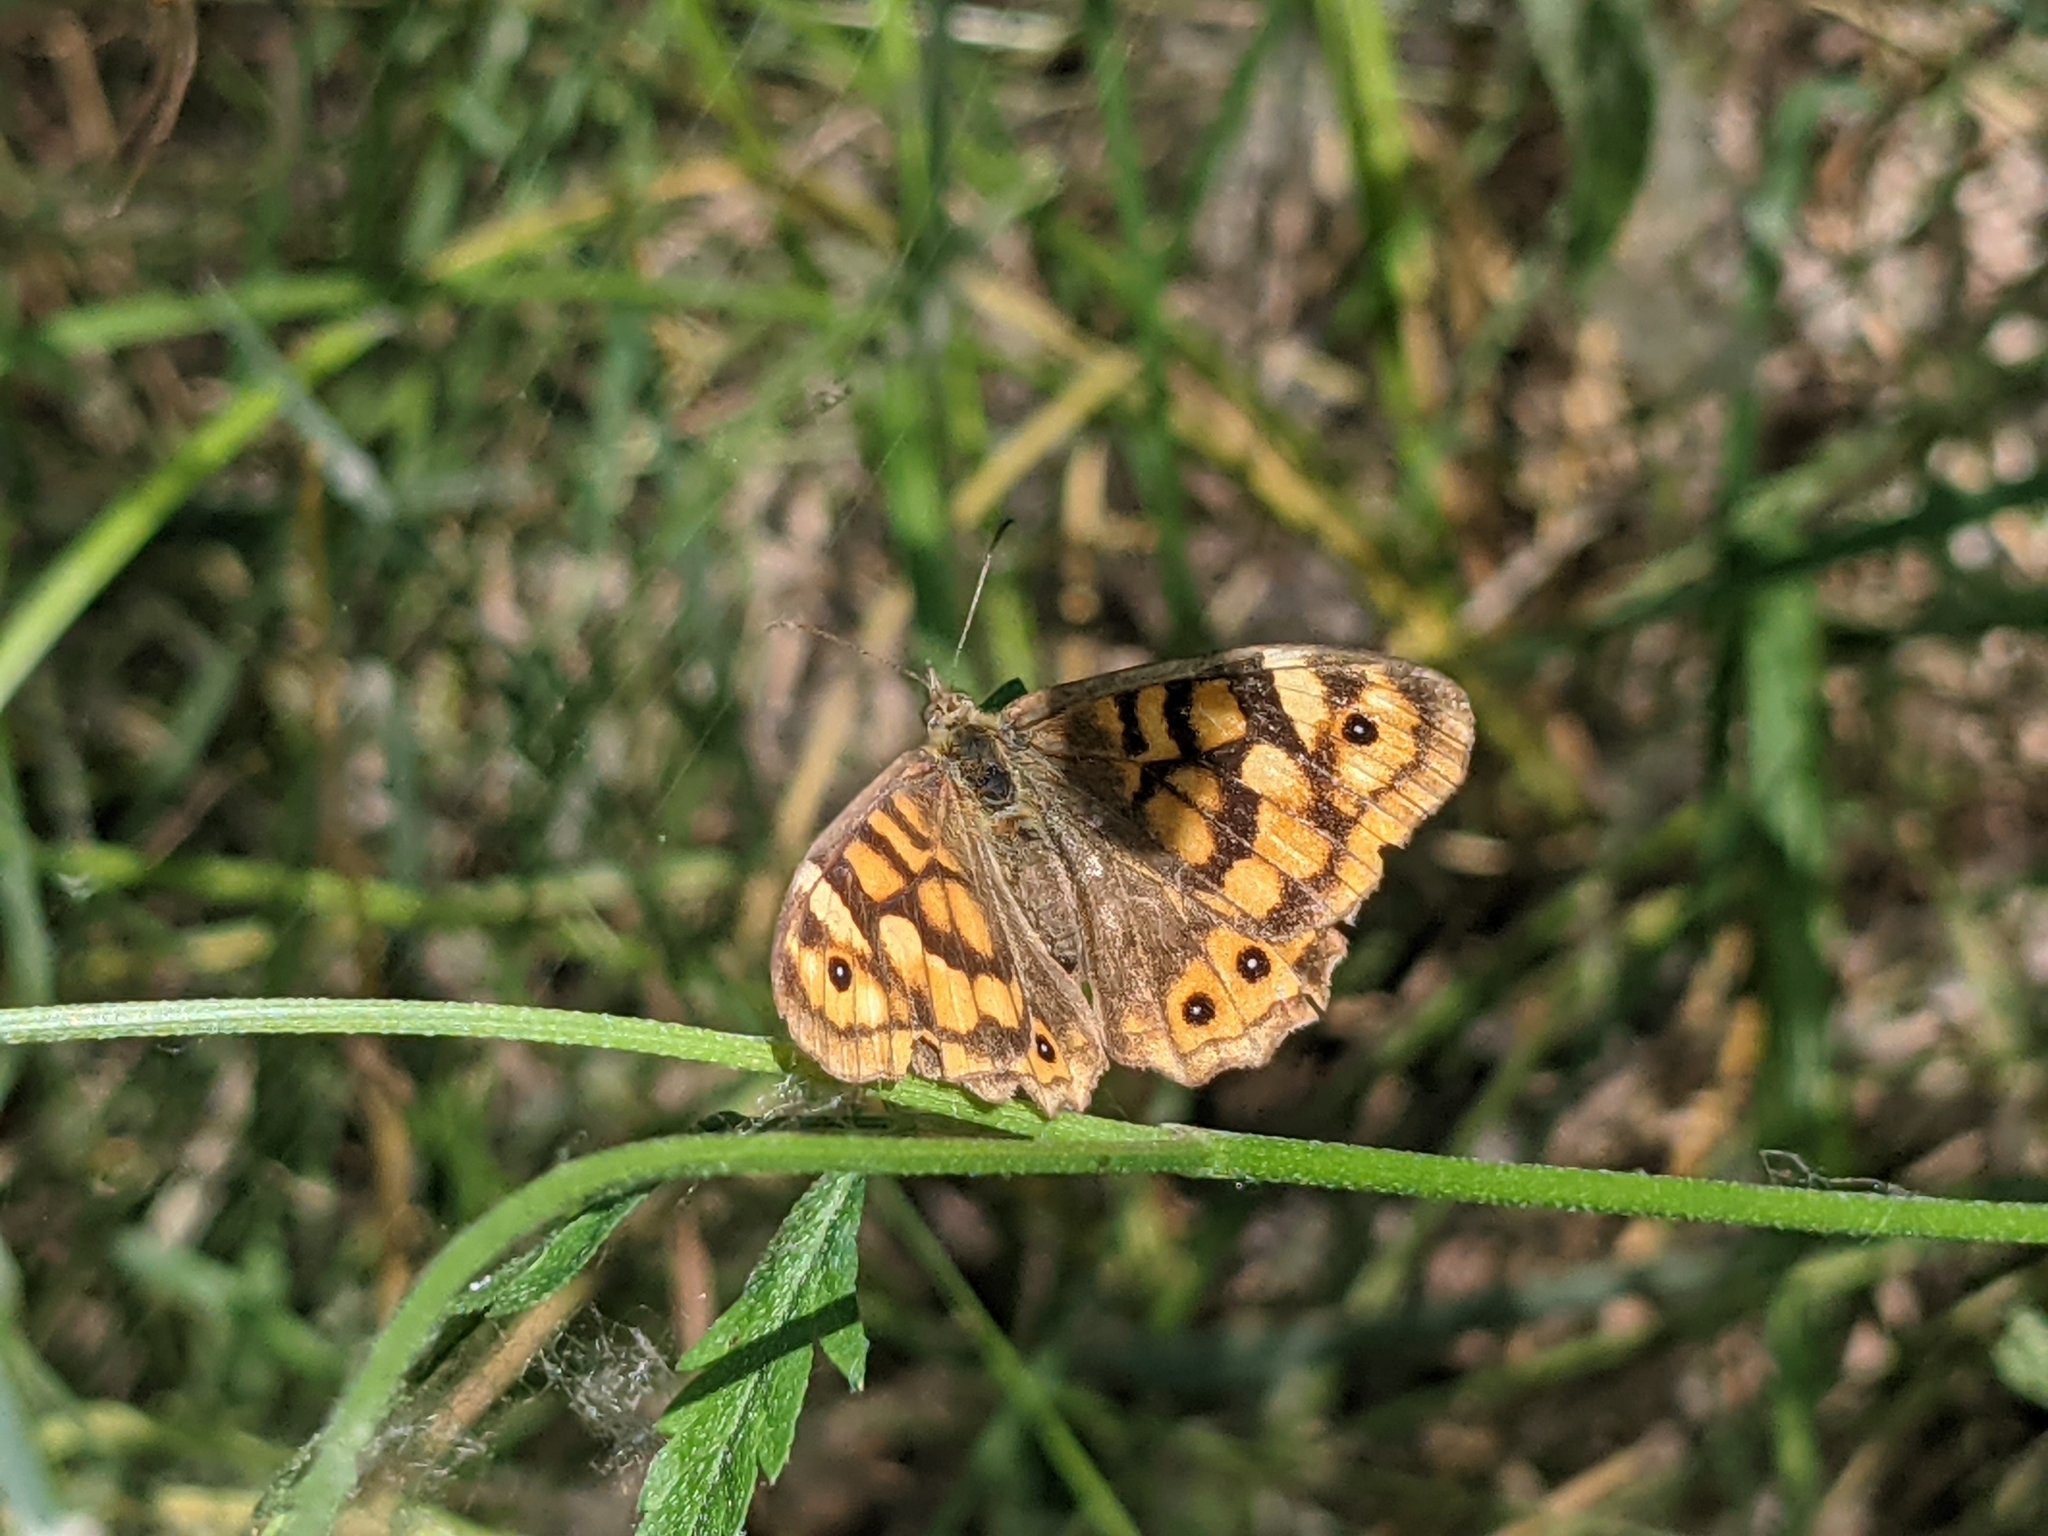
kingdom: Animalia
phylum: Arthropoda
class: Insecta
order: Lepidoptera
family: Nymphalidae
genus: Pararge
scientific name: Pararge aegeria
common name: Speckled wood
